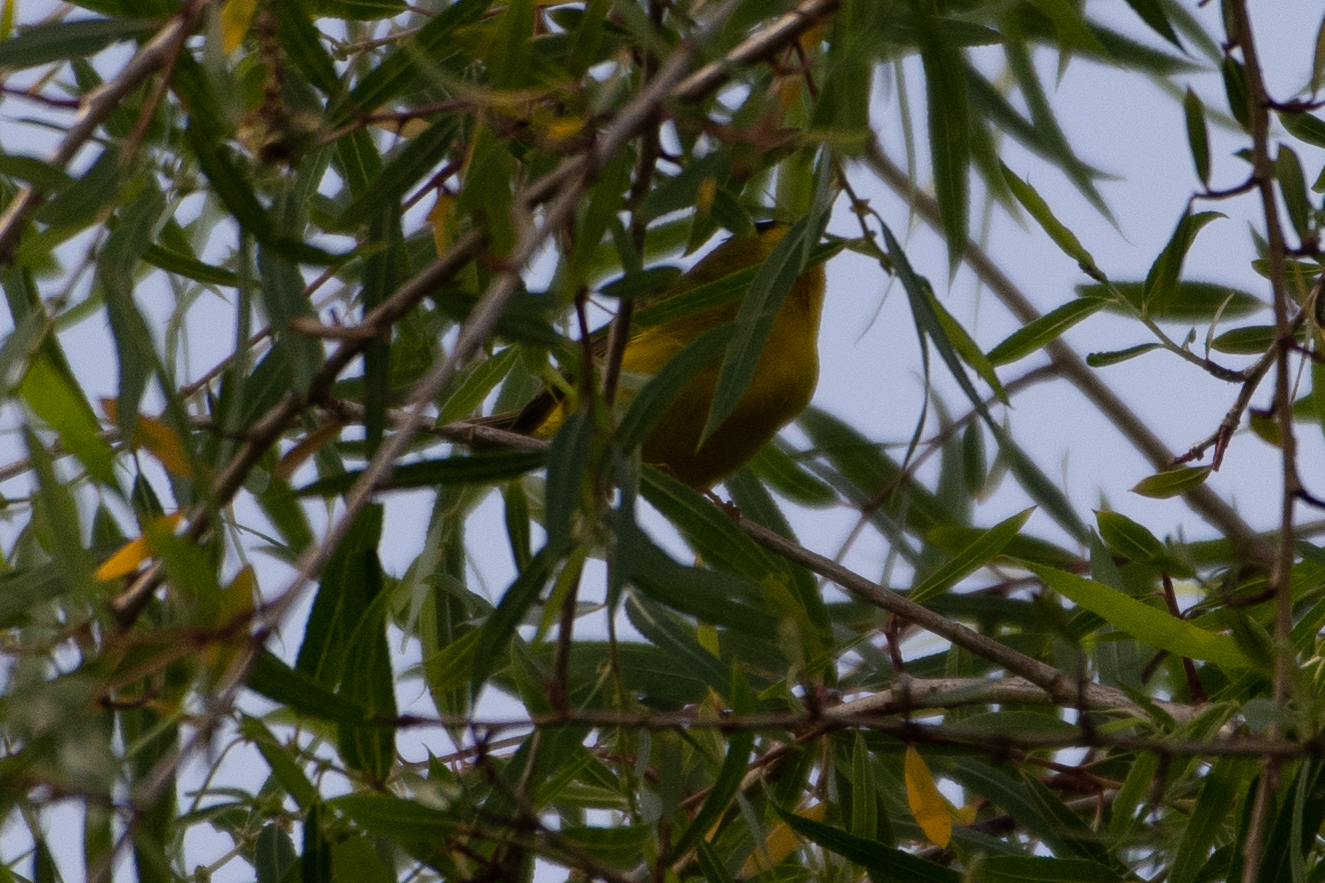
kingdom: Animalia
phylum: Chordata
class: Aves
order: Passeriformes
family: Parulidae
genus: Cardellina
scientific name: Cardellina pusilla
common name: Wilson's warbler
